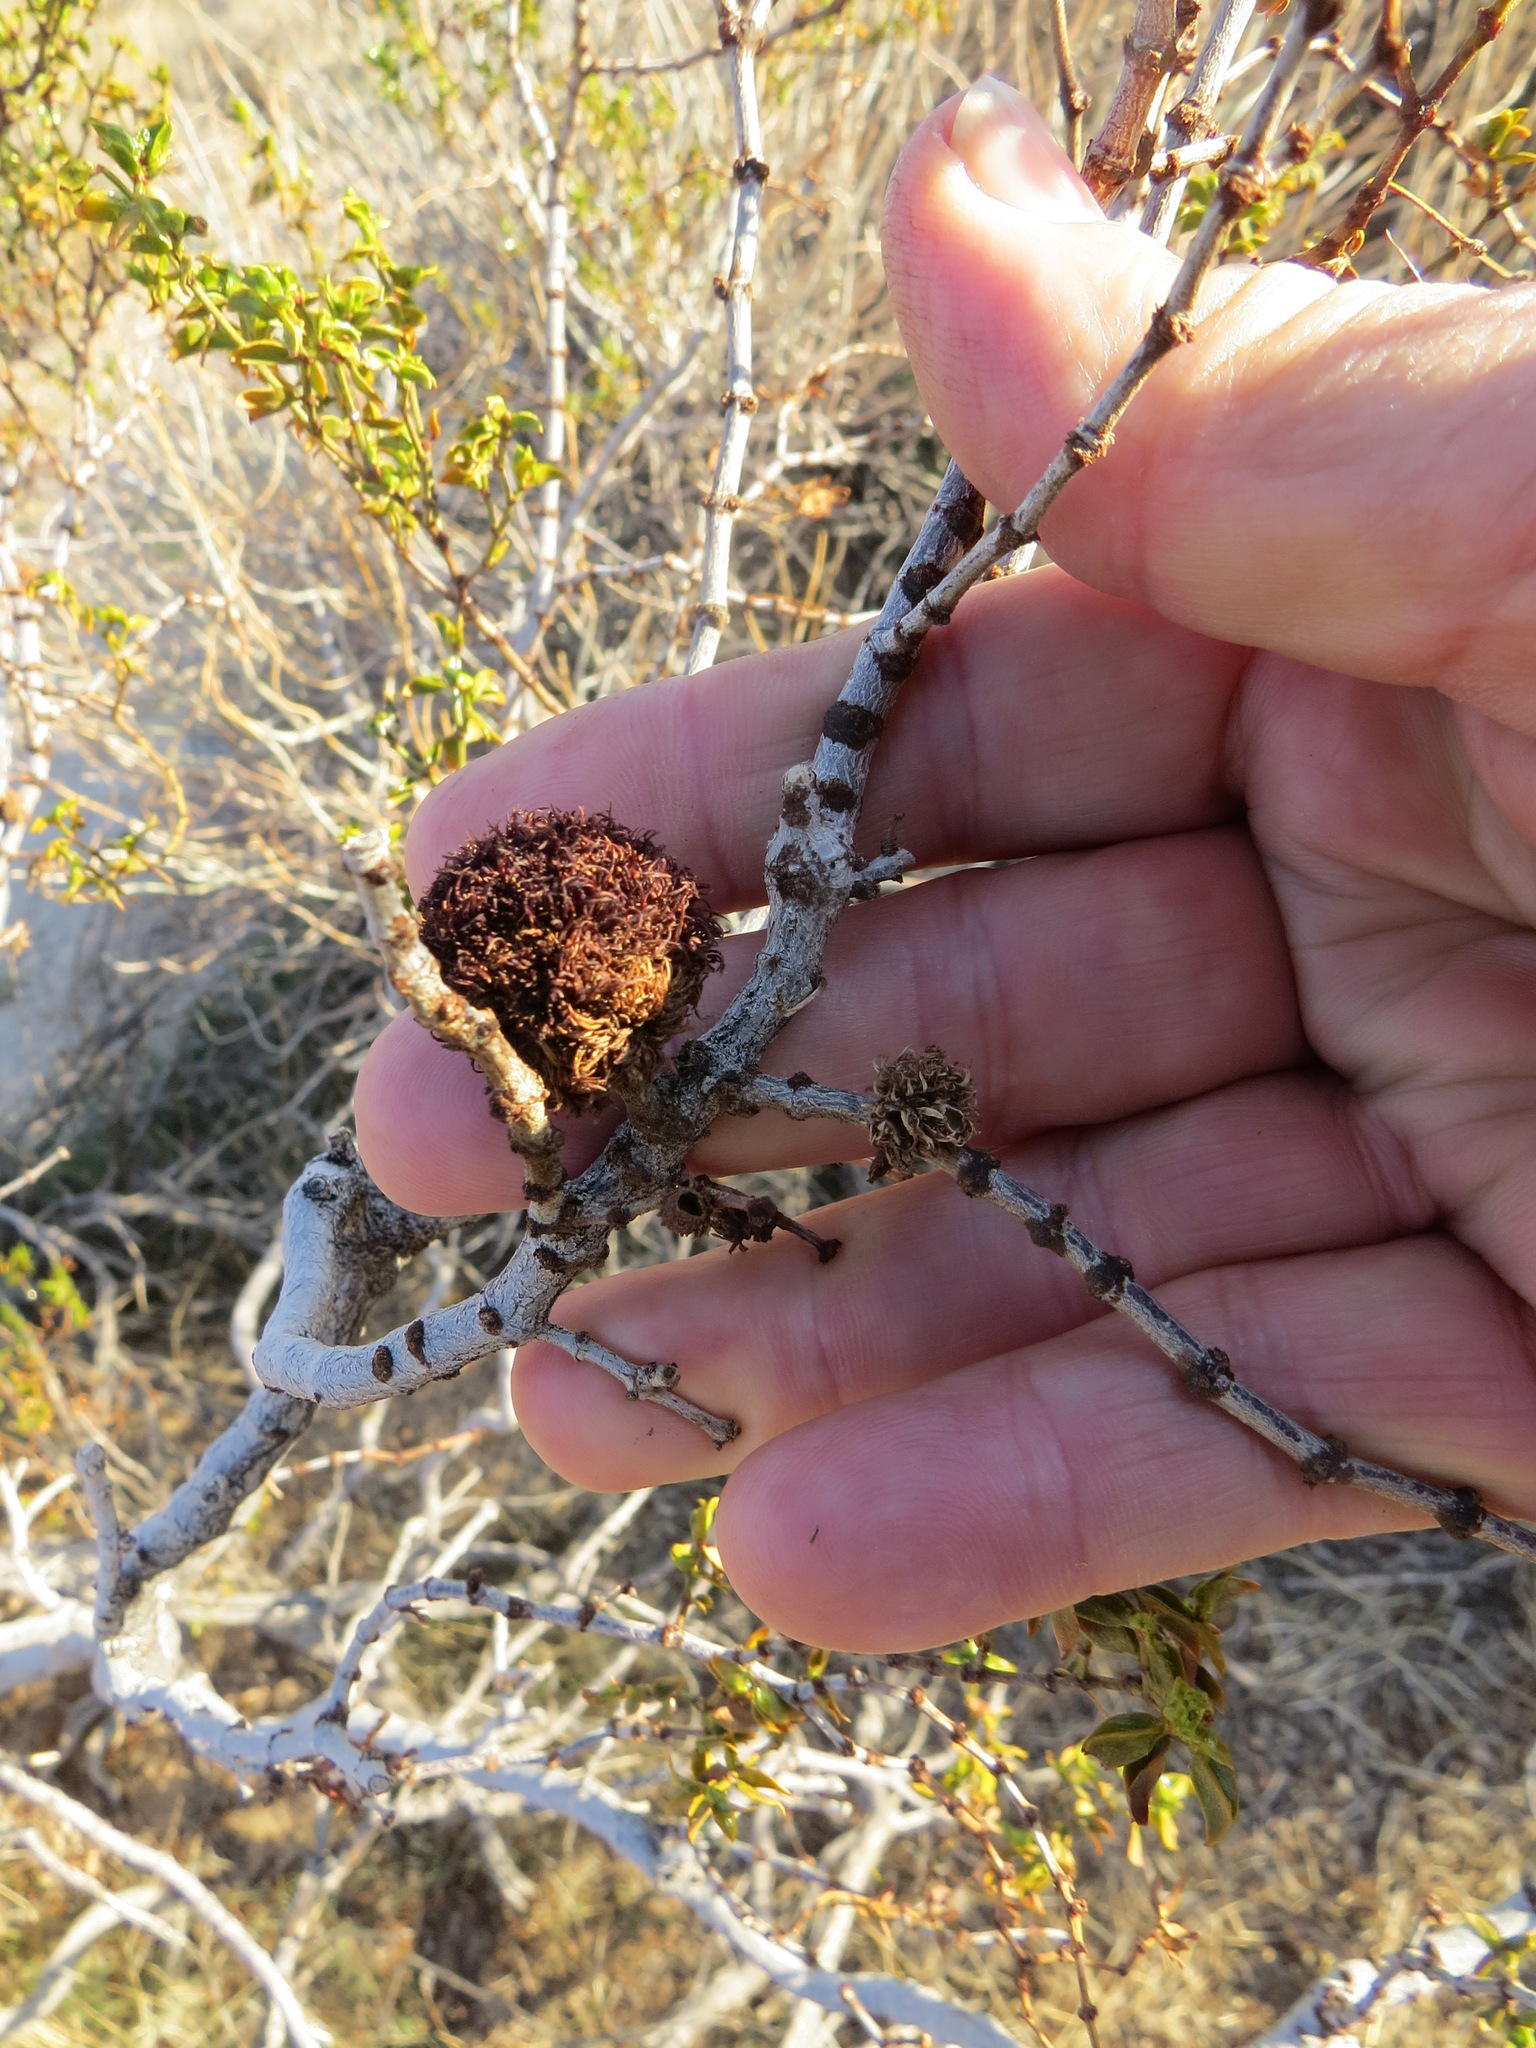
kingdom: Animalia
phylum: Arthropoda
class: Insecta
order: Diptera
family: Cecidomyiidae
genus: Asphondylia
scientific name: Asphondylia auripila
